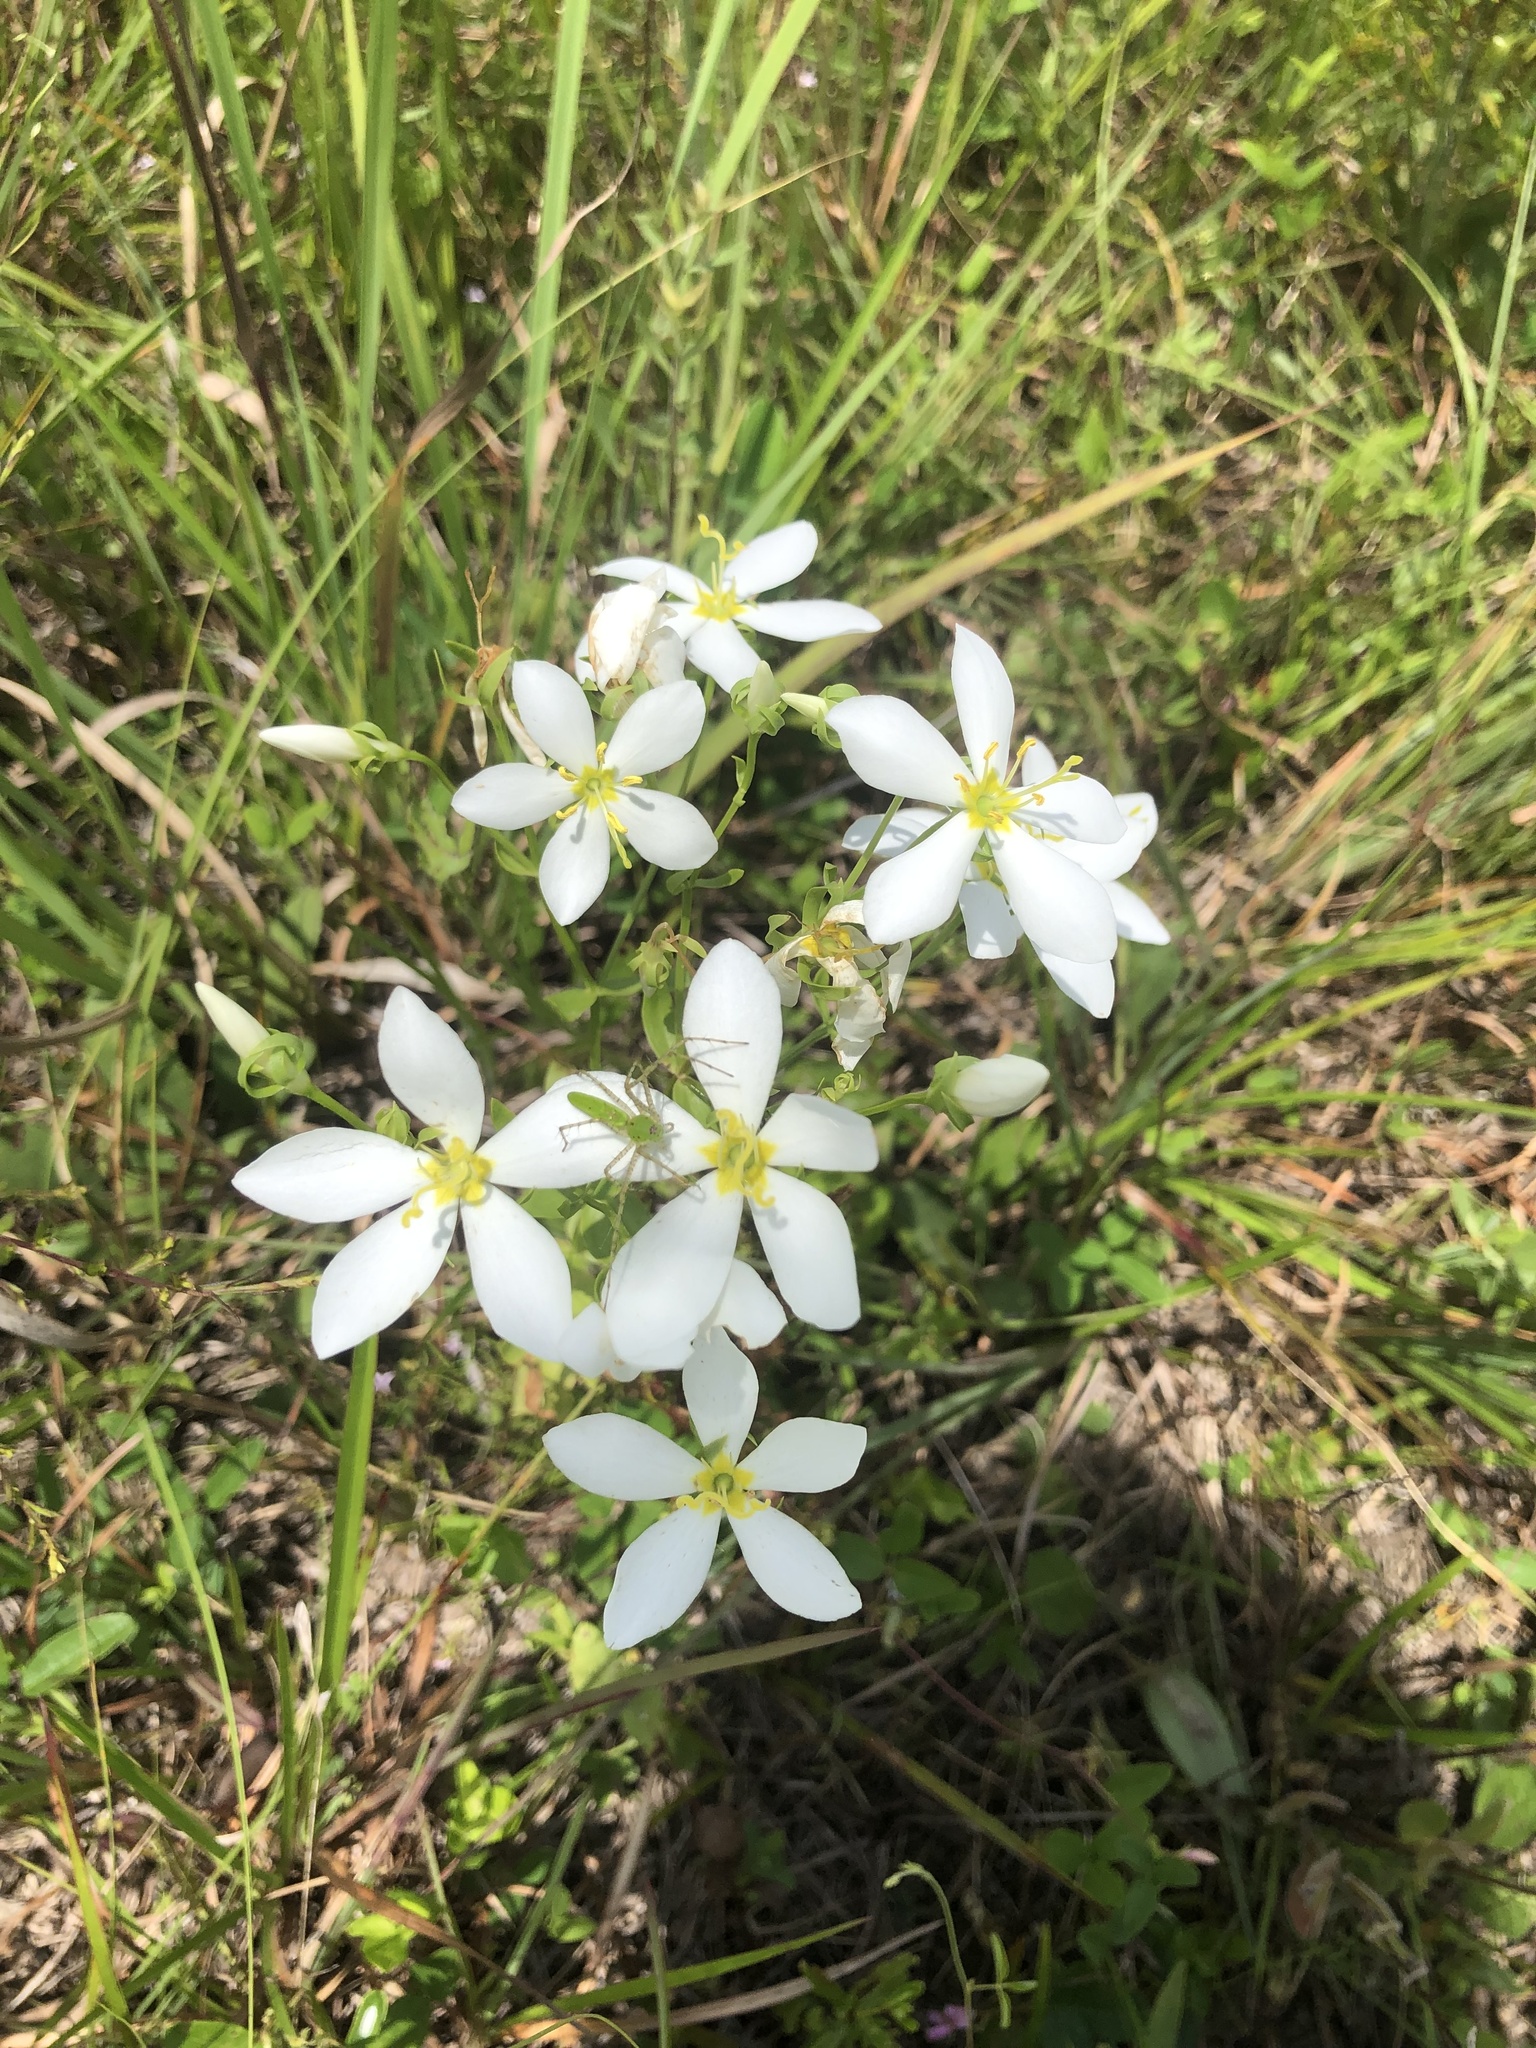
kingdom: Plantae
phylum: Tracheophyta
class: Magnoliopsida
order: Gentianales
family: Gentianaceae
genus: Sabatia
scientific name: Sabatia angularis
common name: Rose-pink
